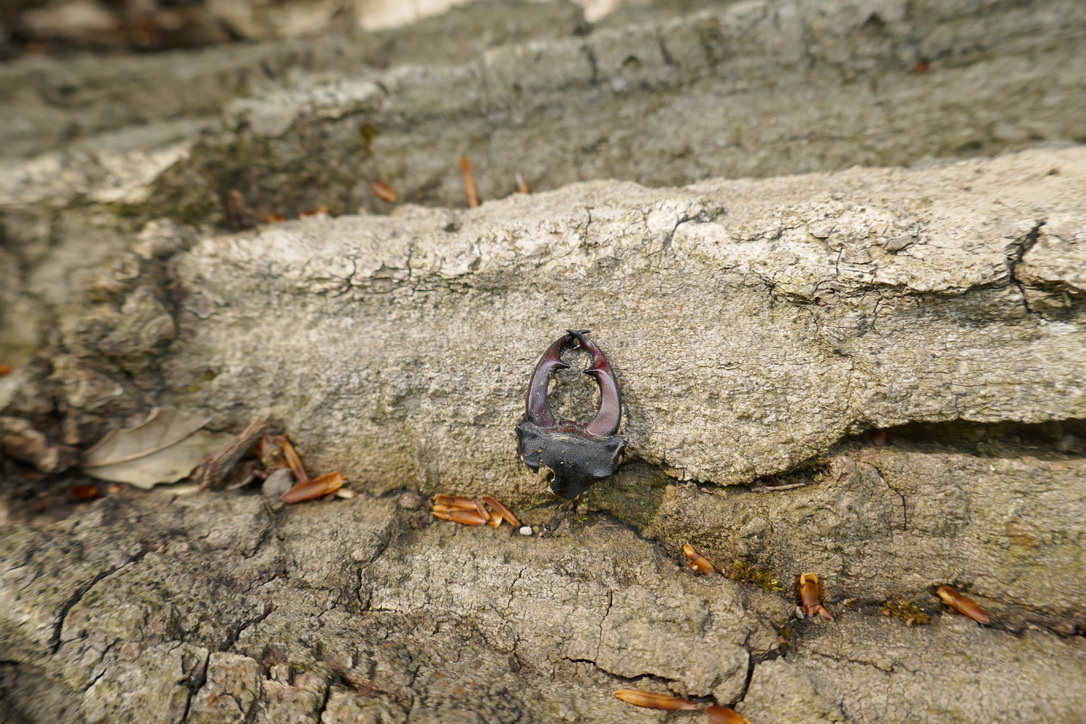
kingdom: Animalia
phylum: Arthropoda
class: Insecta
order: Coleoptera
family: Lucanidae
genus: Lucanus
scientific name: Lucanus cervus
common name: Stag beetle
